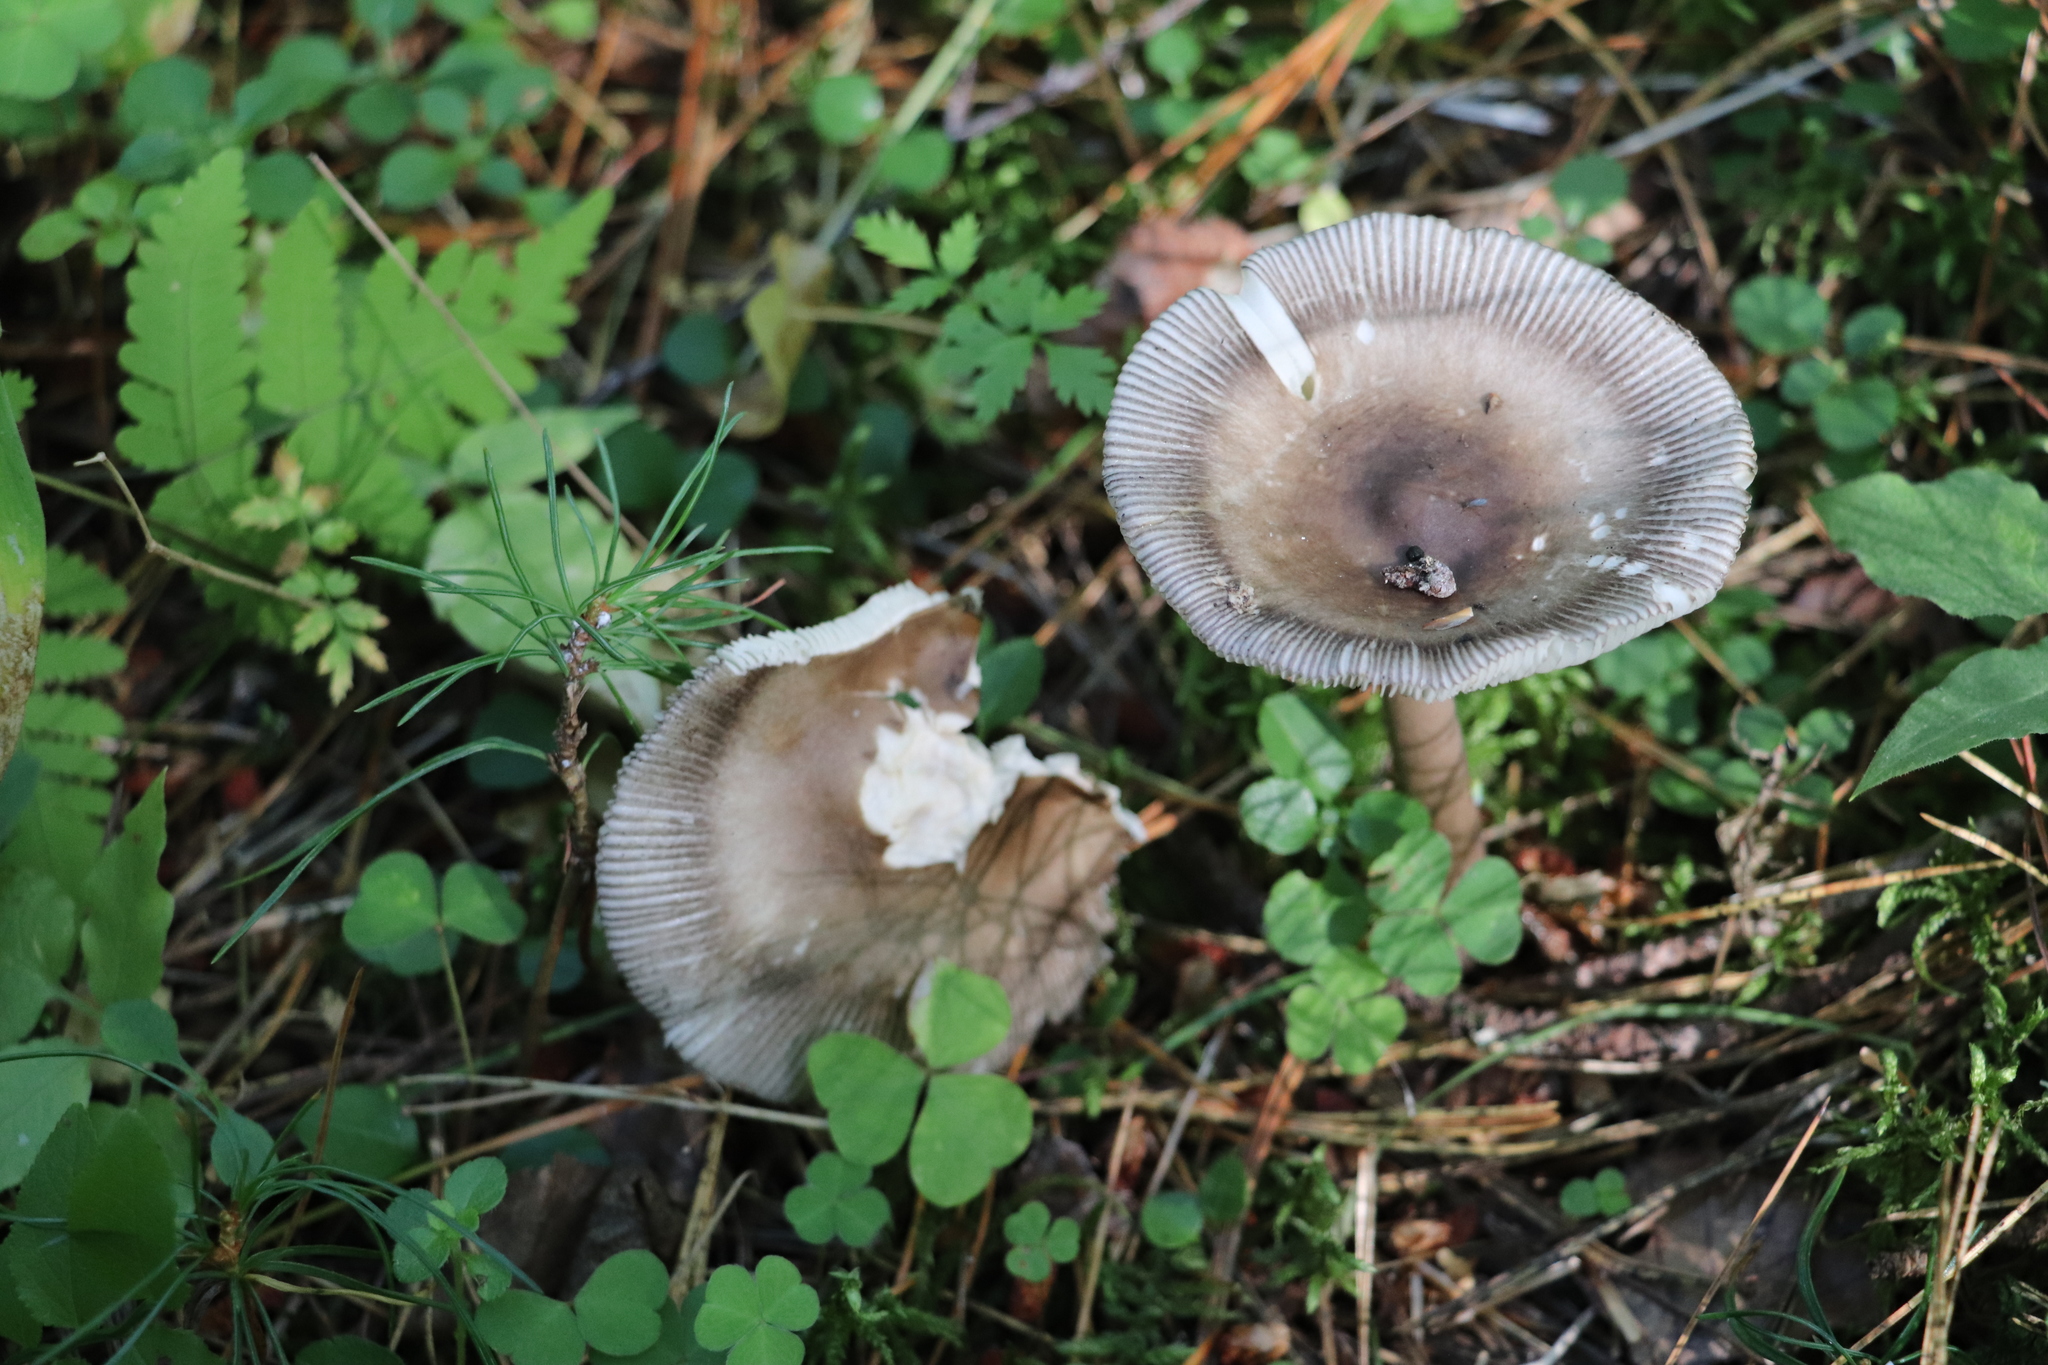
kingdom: Fungi
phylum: Basidiomycota
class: Agaricomycetes
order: Agaricales
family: Amanitaceae
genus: Amanita
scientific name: Amanita battarrae
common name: Banded amanita
